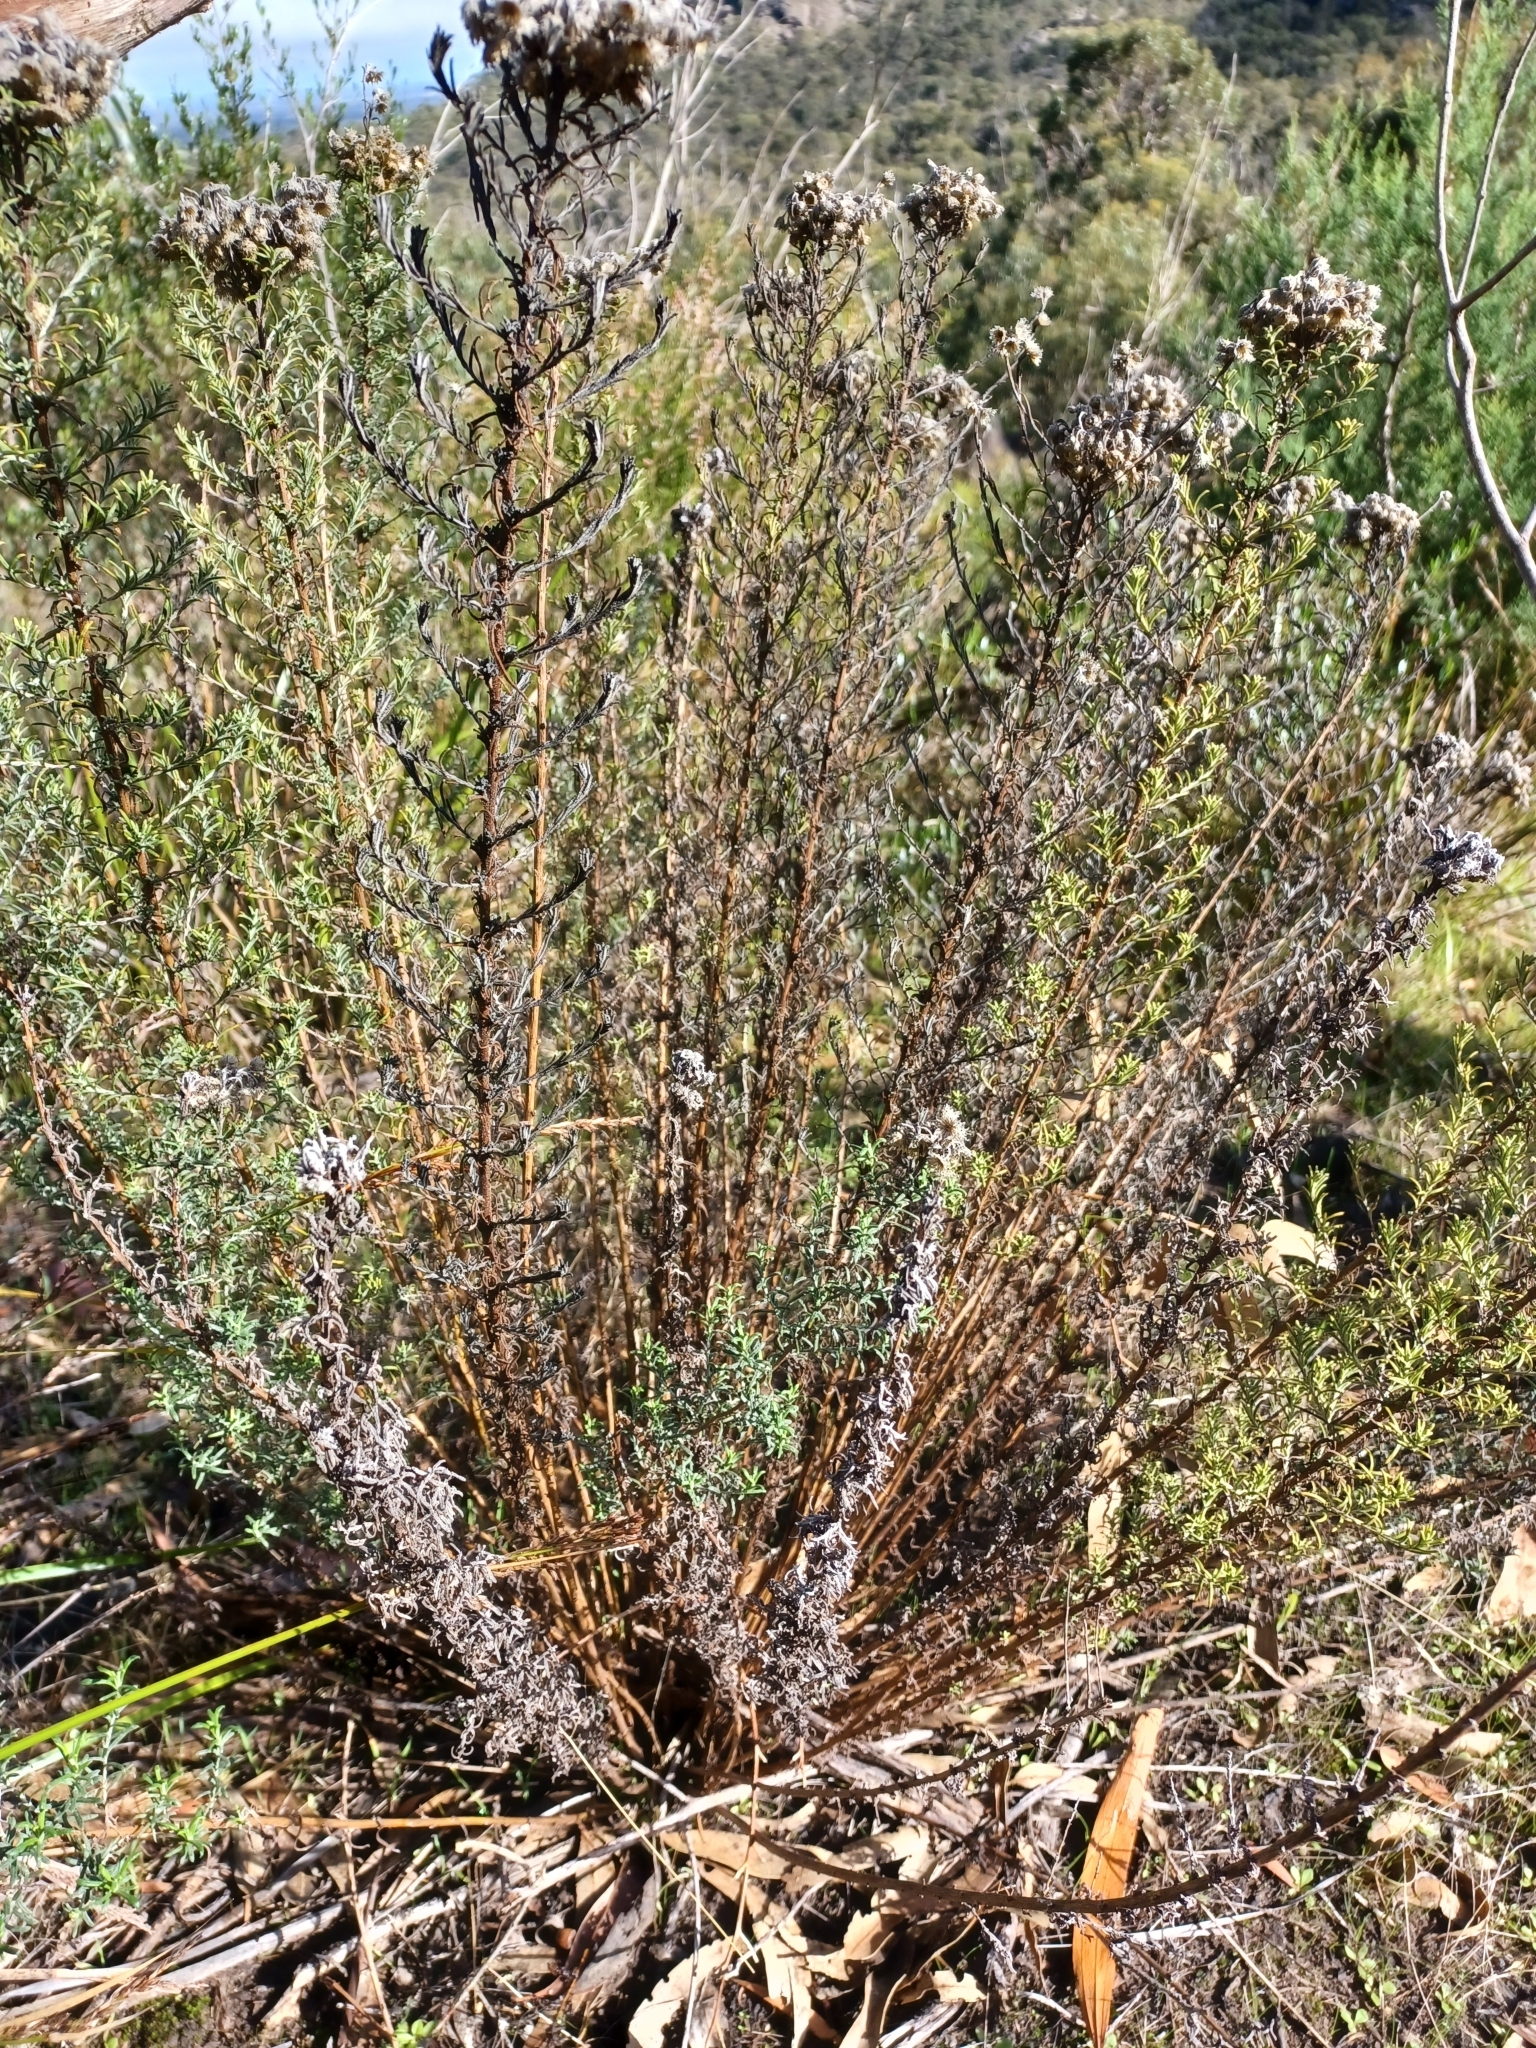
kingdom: Plantae
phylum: Tracheophyta
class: Magnoliopsida
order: Asterales
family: Asteraceae
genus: Chrysocephalum
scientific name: Chrysocephalum semipapposum
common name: Clustered everlasting
